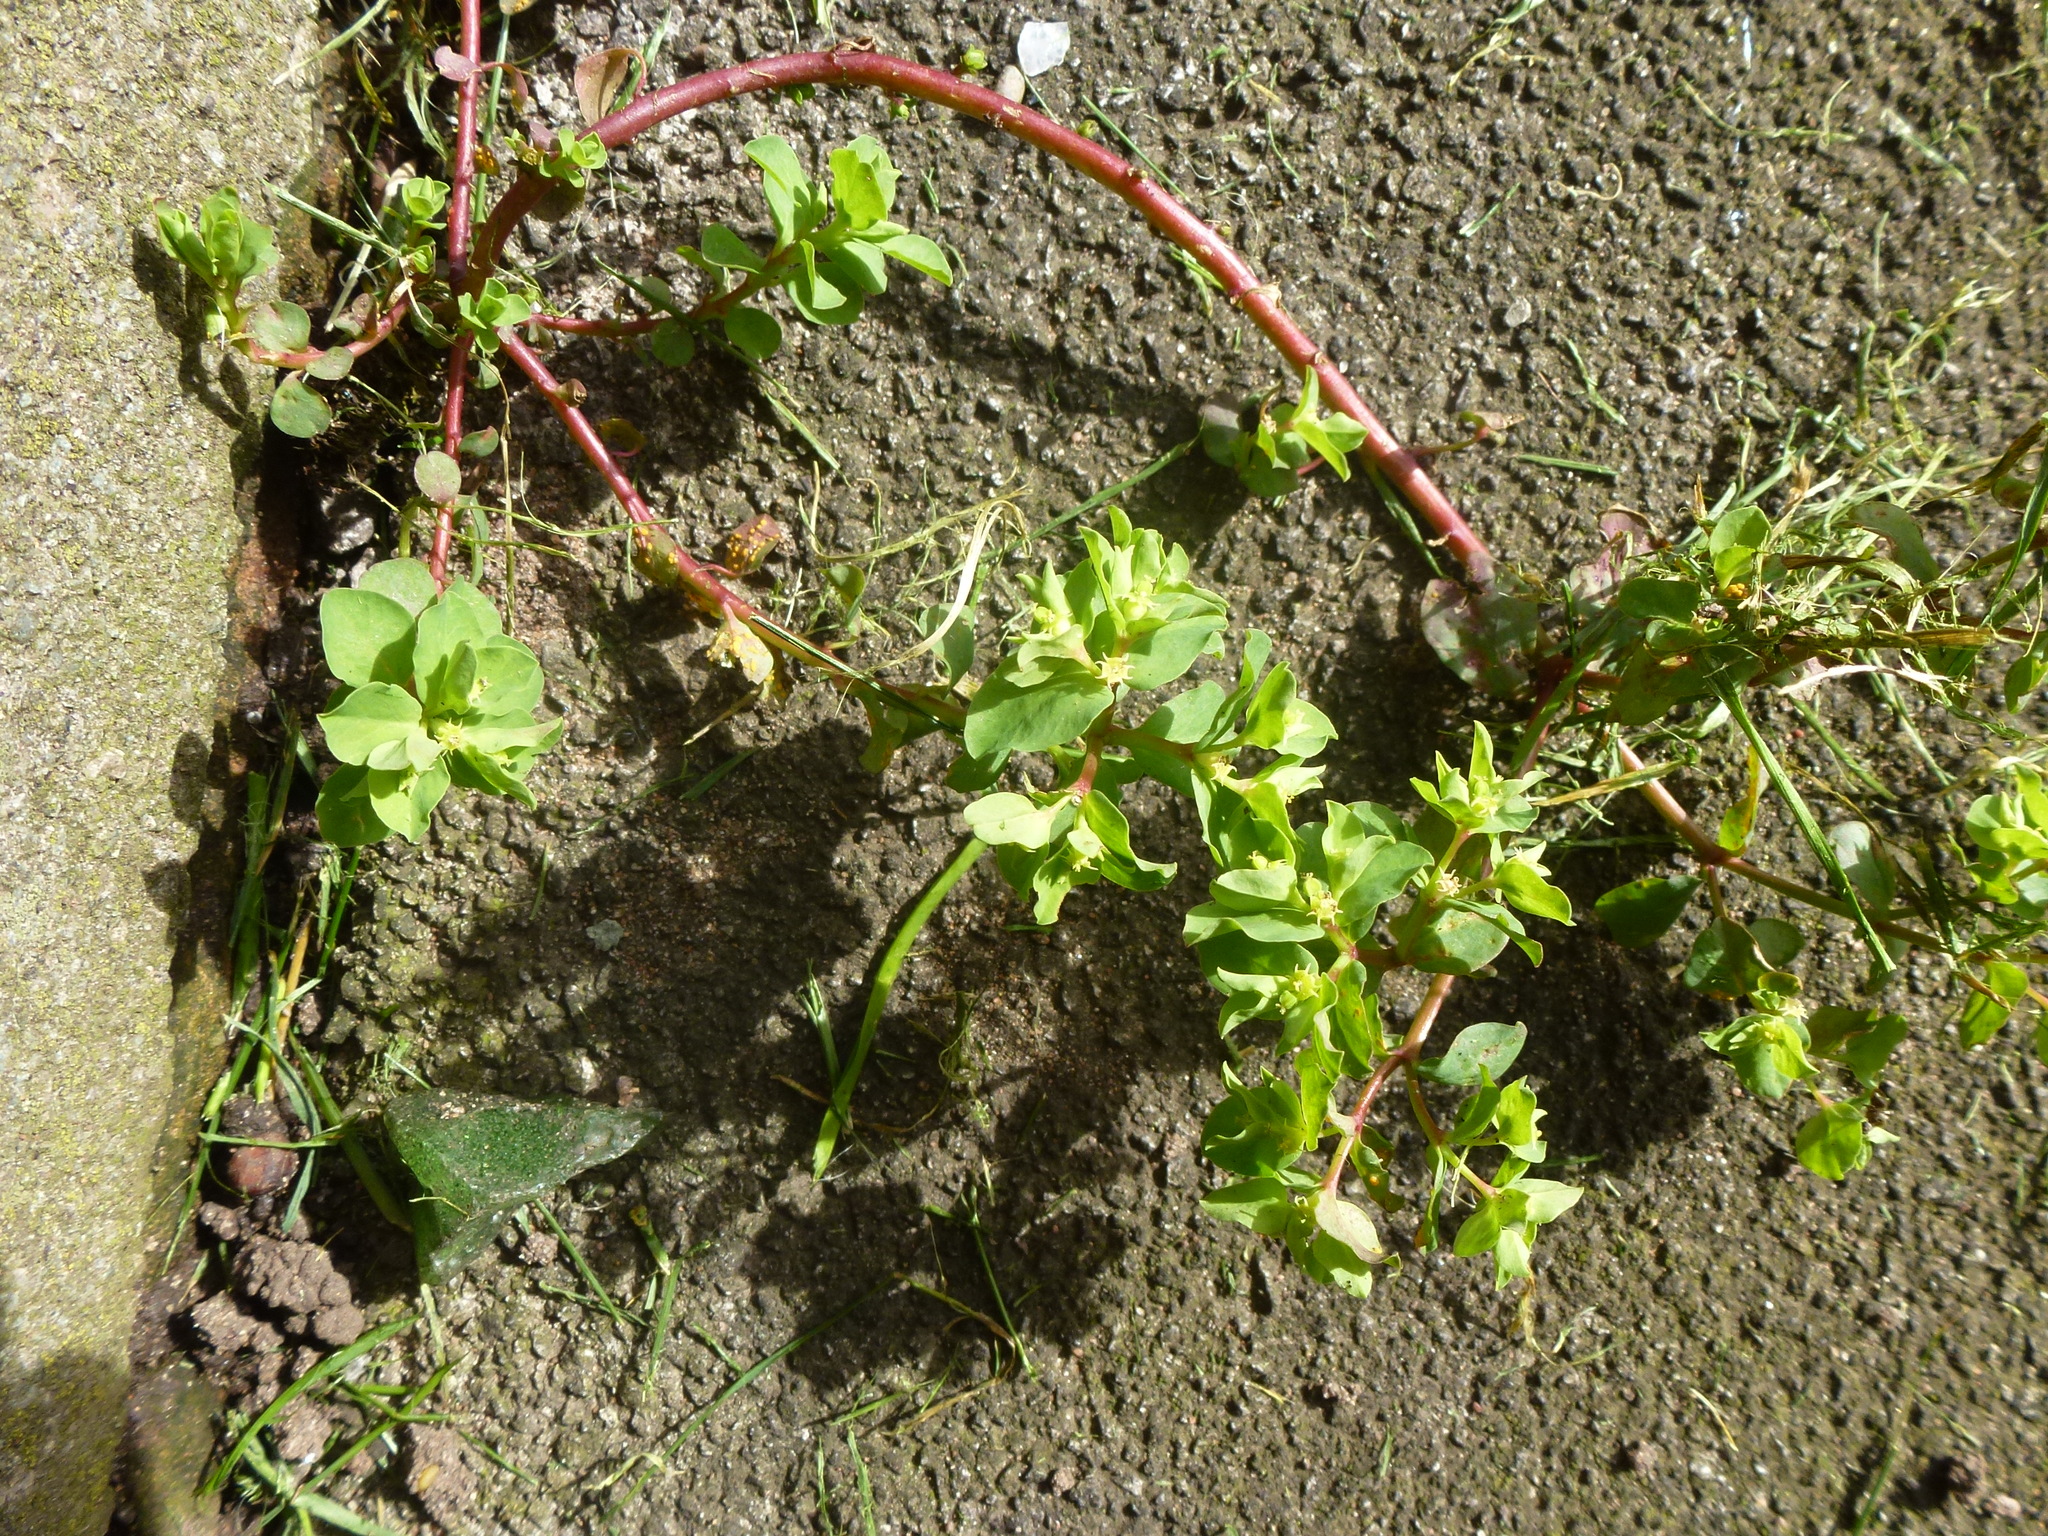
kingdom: Plantae
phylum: Tracheophyta
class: Magnoliopsida
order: Malpighiales
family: Euphorbiaceae
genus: Euphorbia
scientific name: Euphorbia peplus
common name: Petty spurge
